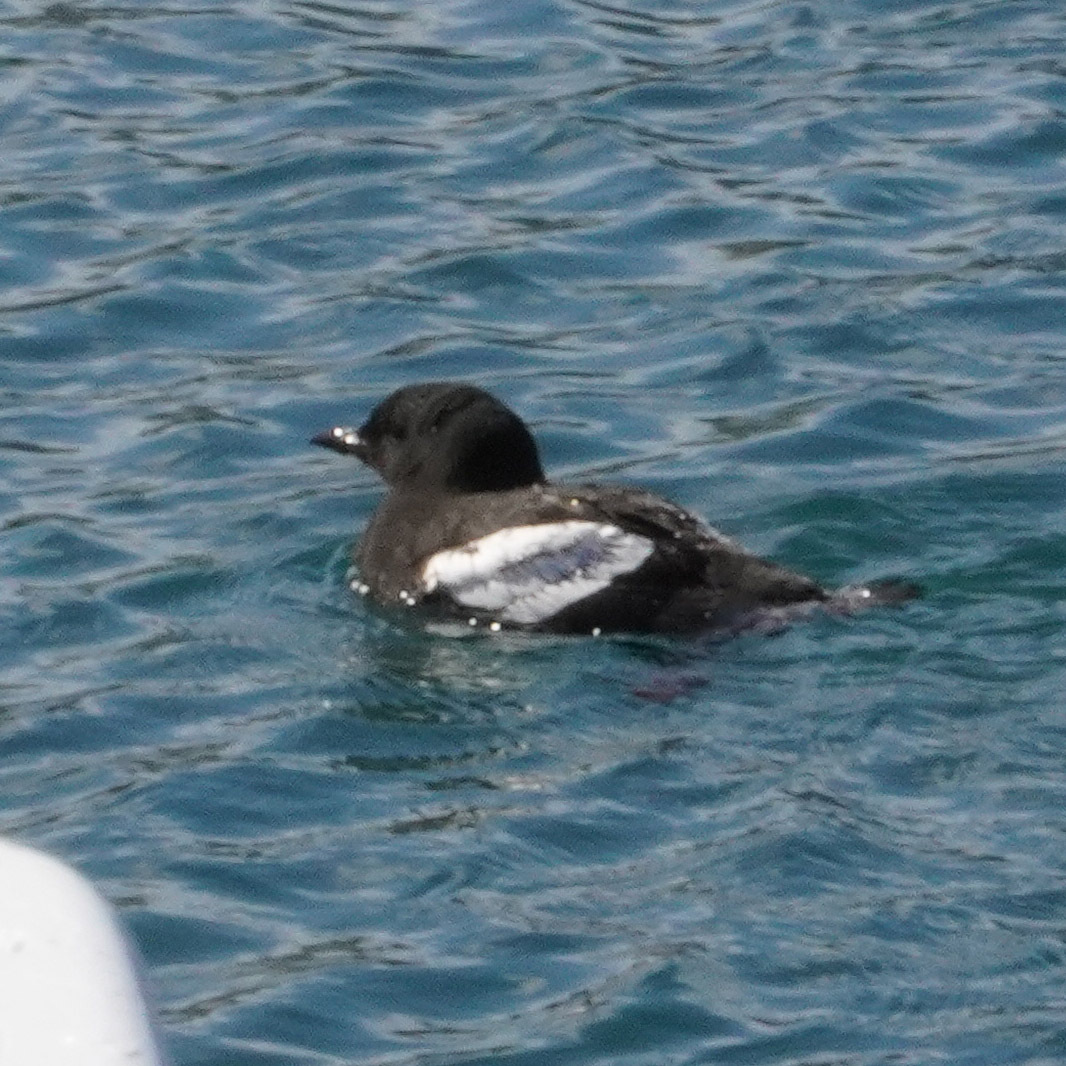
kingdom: Animalia
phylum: Chordata
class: Aves
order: Charadriiformes
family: Alcidae
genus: Cepphus
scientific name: Cepphus grylle
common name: Black guillemot
